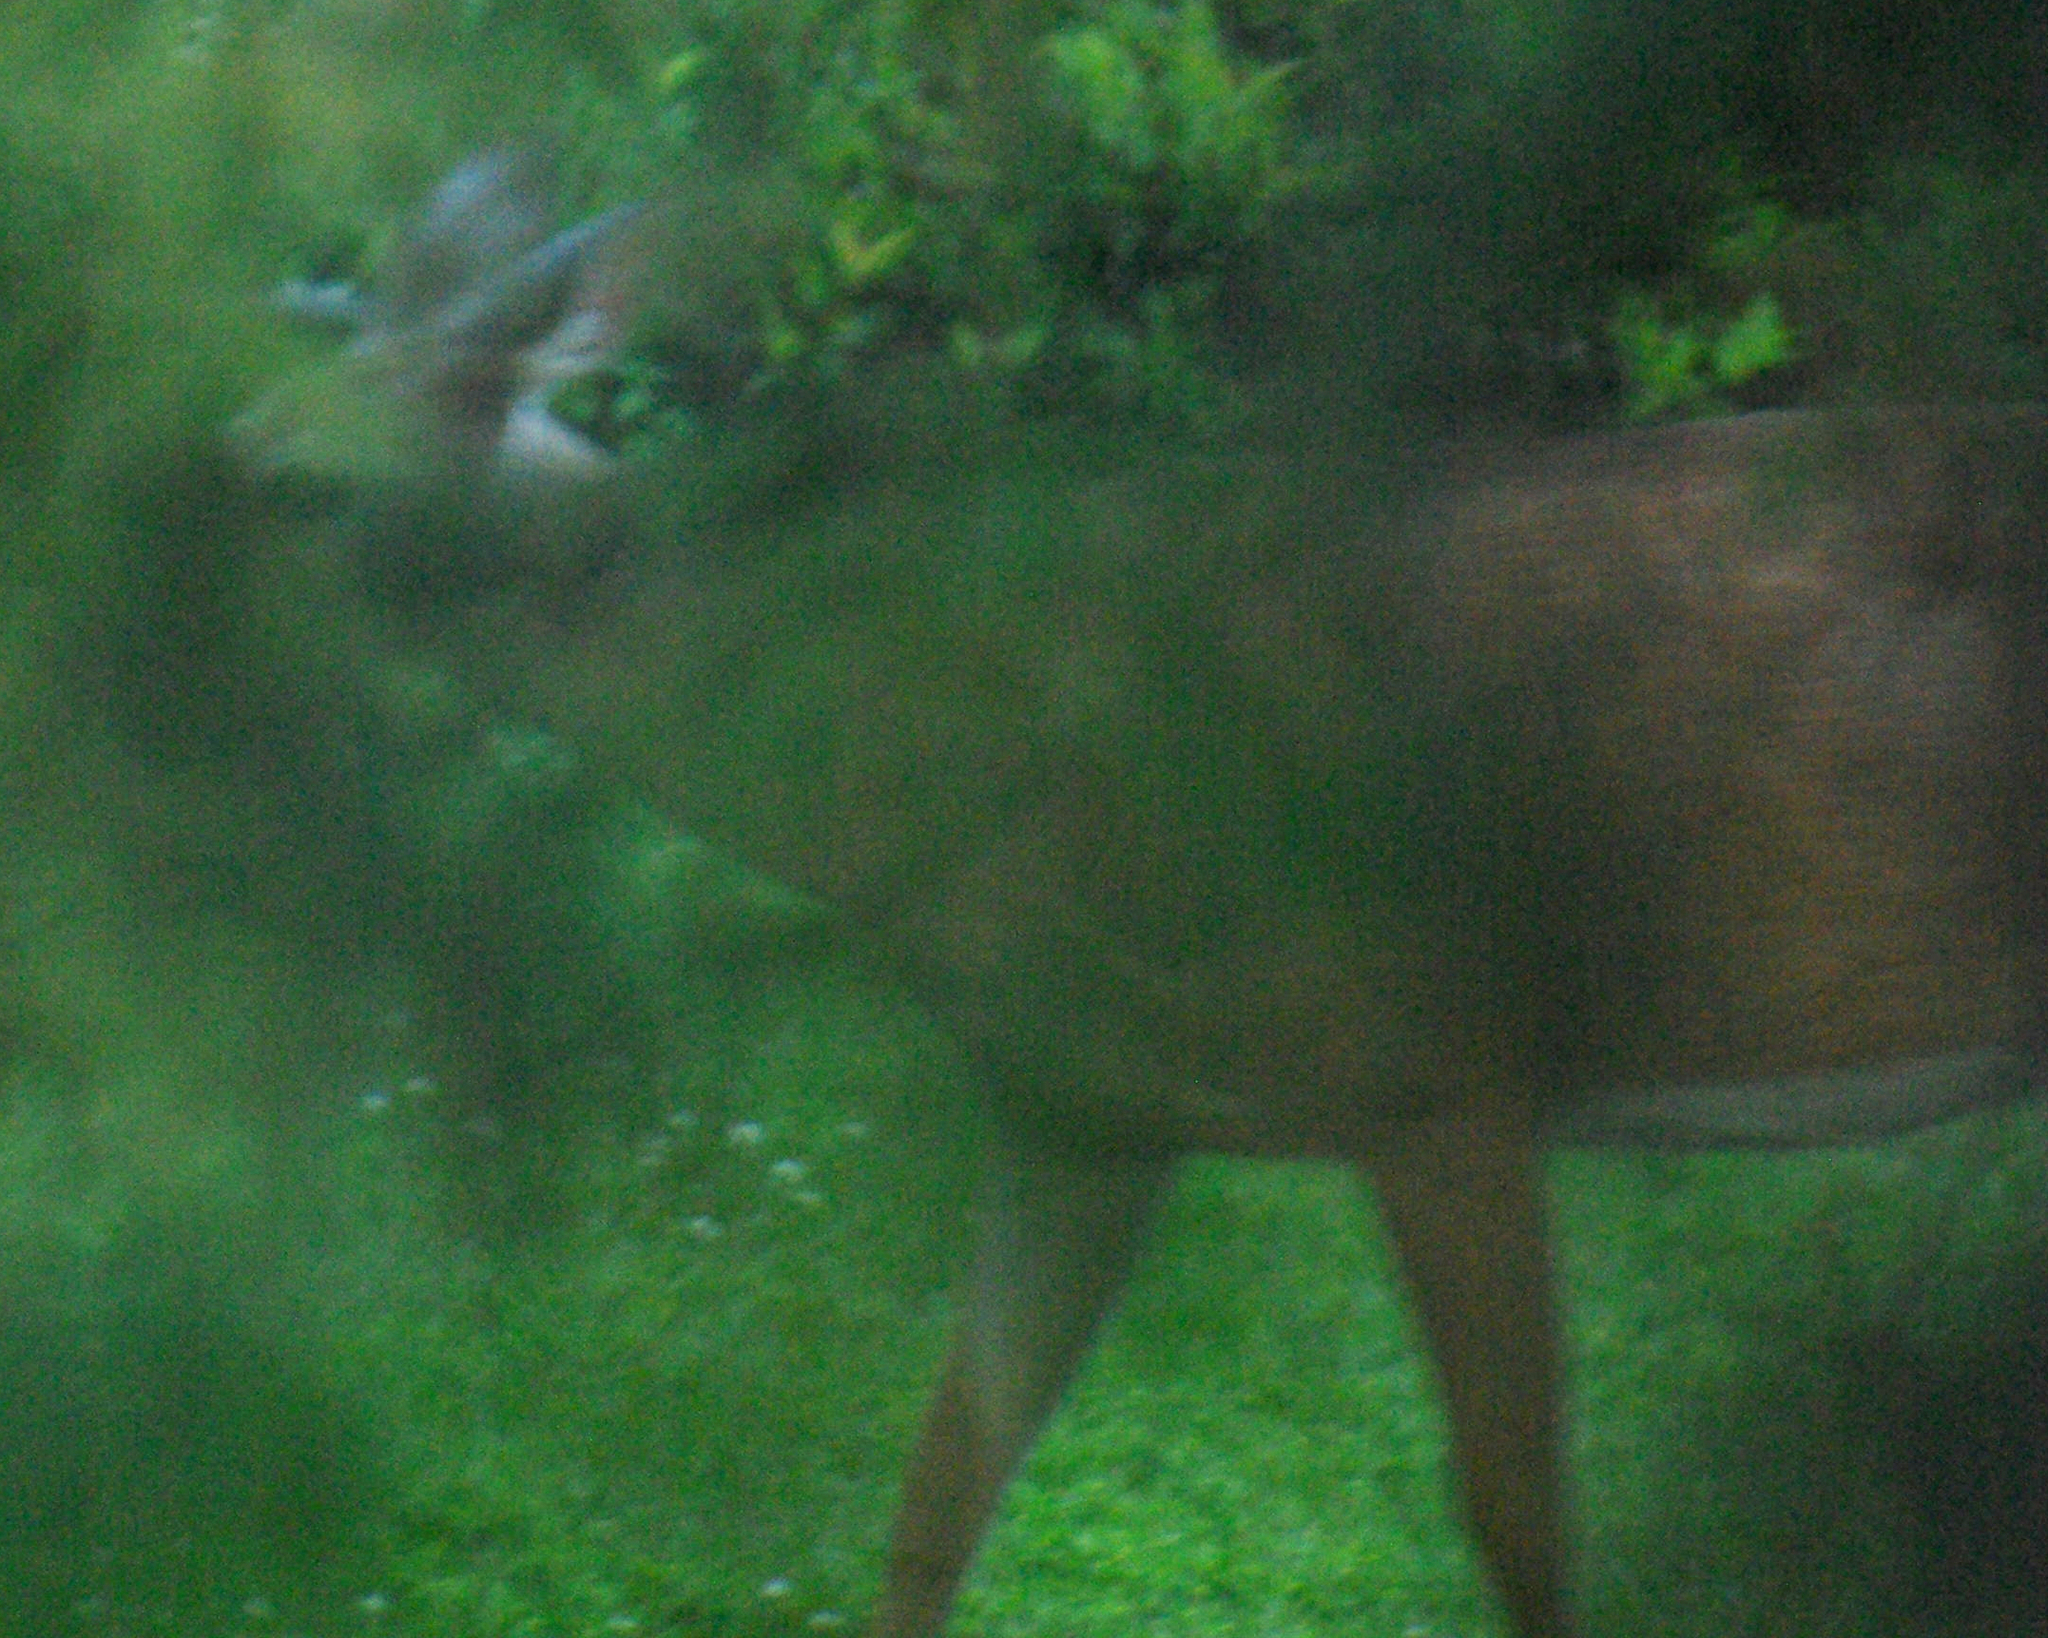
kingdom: Animalia
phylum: Chordata
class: Mammalia
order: Artiodactyla
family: Cervidae
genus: Odocoileus
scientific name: Odocoileus virginianus
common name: White-tailed deer
